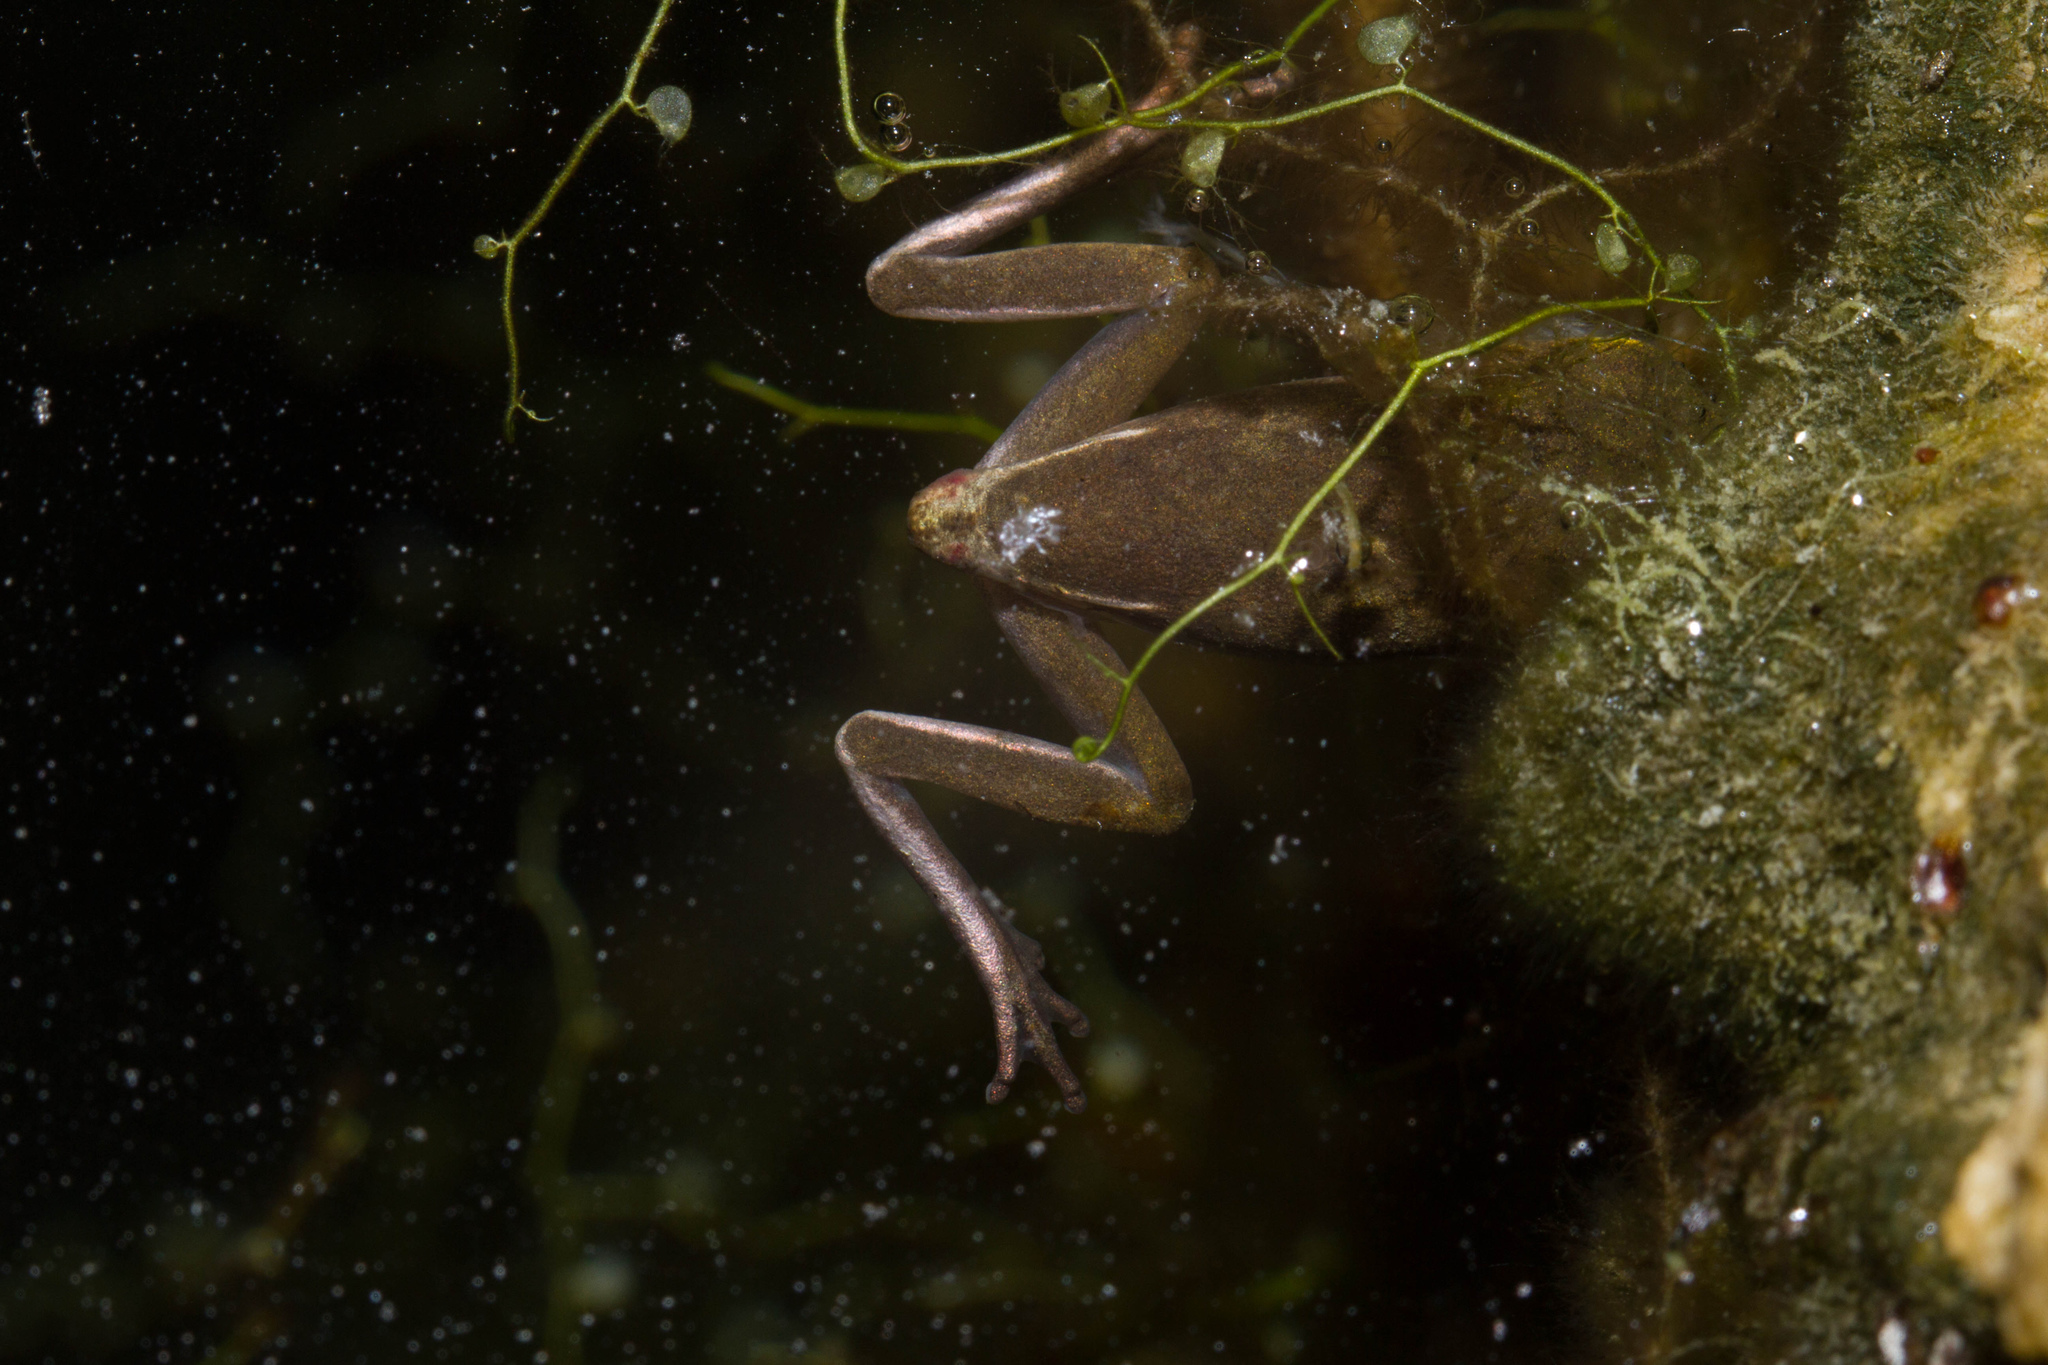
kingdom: Animalia
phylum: Chordata
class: Amphibia
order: Anura
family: Hylidae
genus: Dryophytes
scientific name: Dryophytes cinereus
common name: Green treefrog
